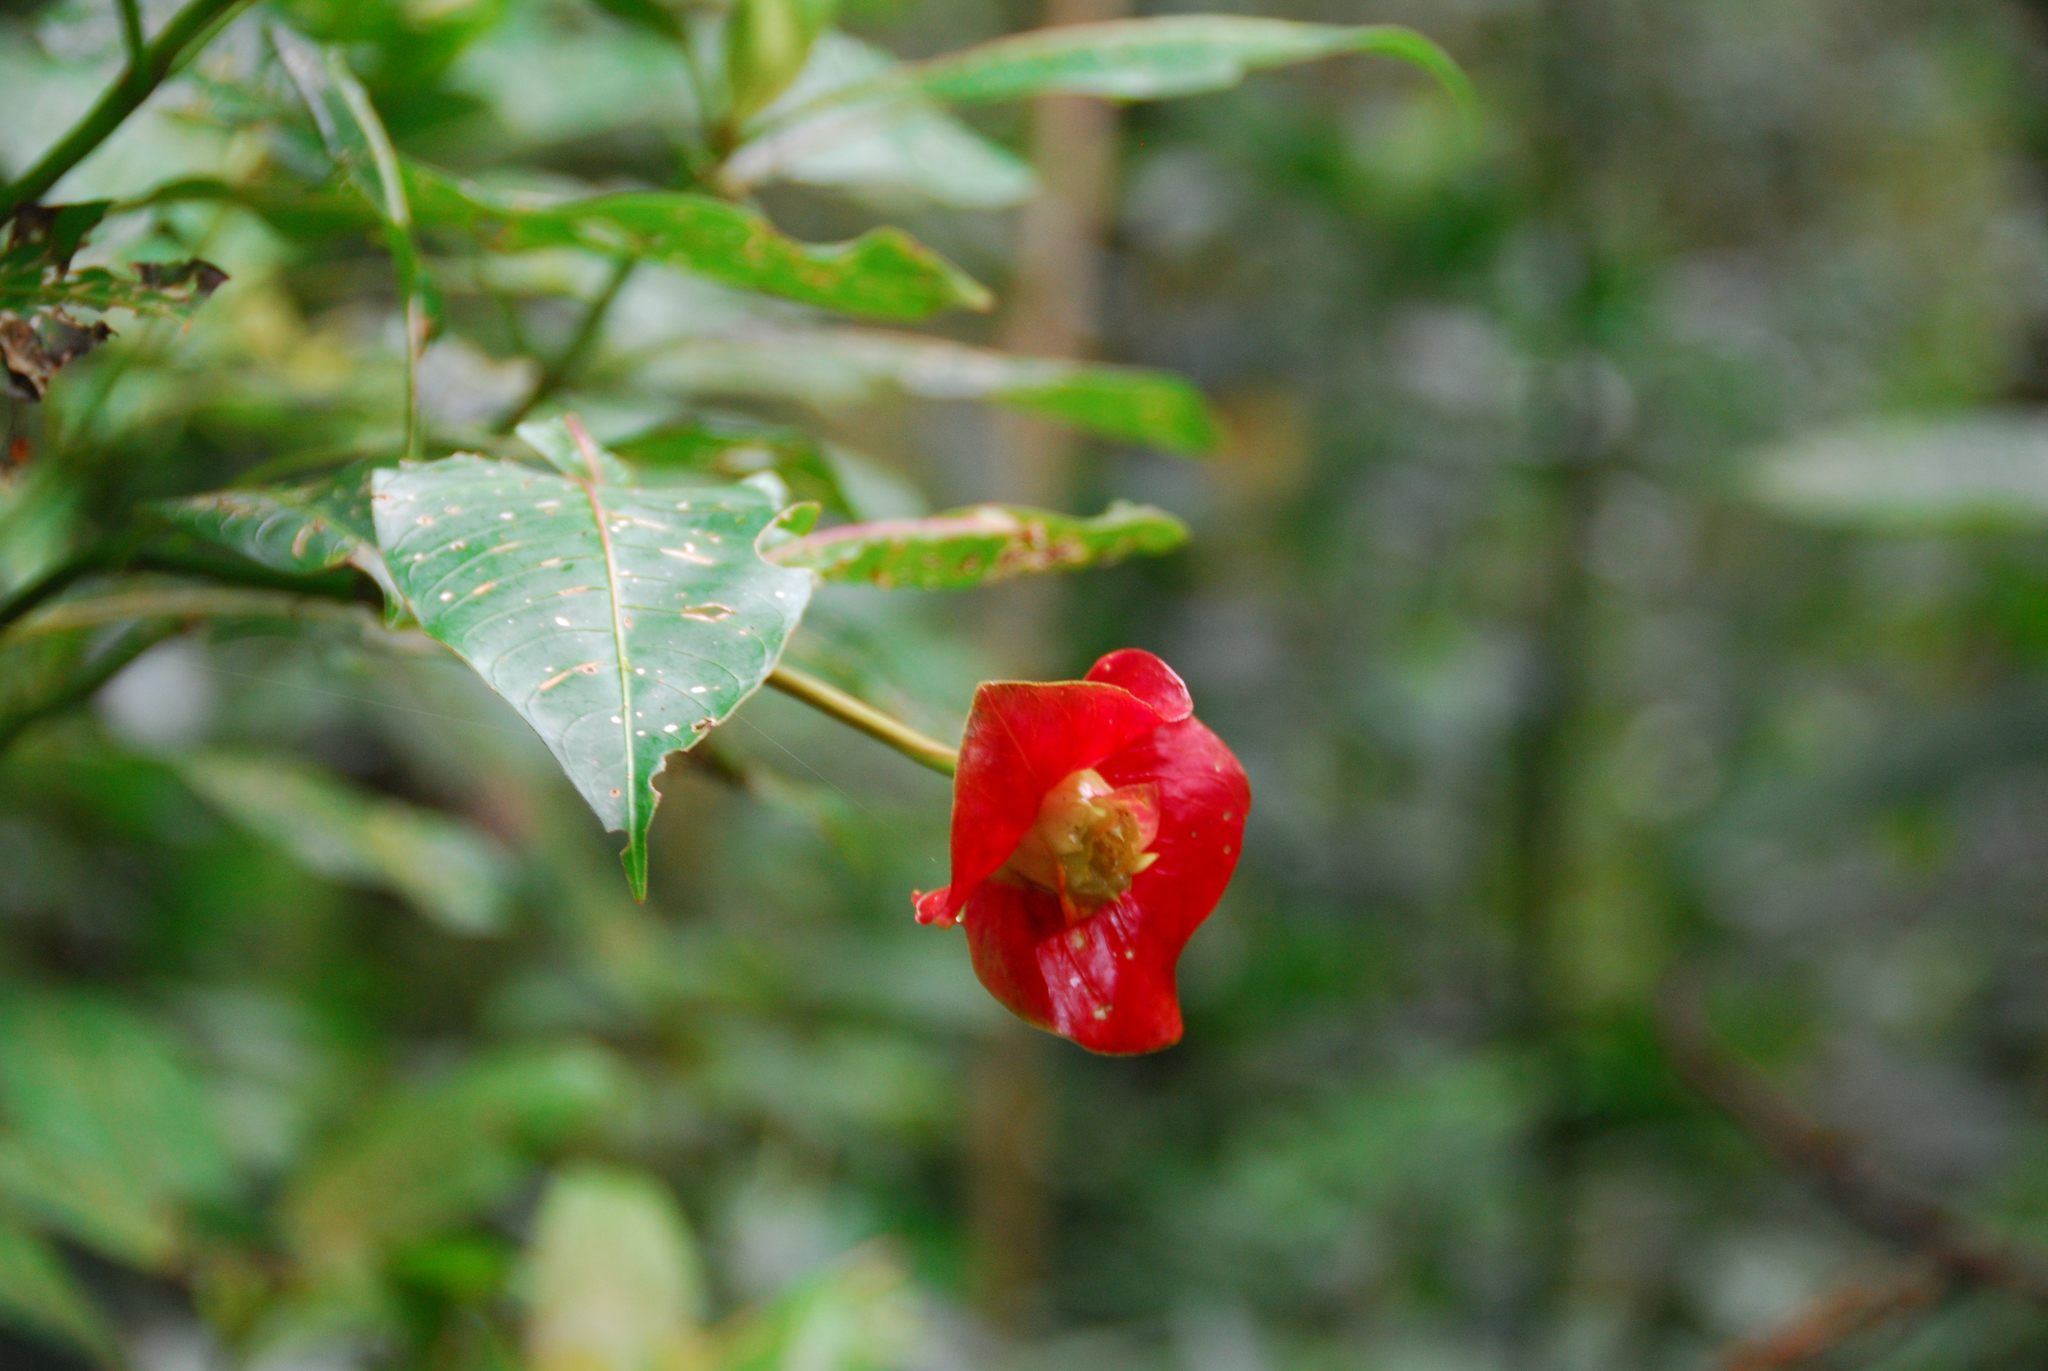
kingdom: Plantae
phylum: Tracheophyta
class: Magnoliopsida
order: Gentianales
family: Rubiaceae
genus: Palicourea
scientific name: Palicourea elata
